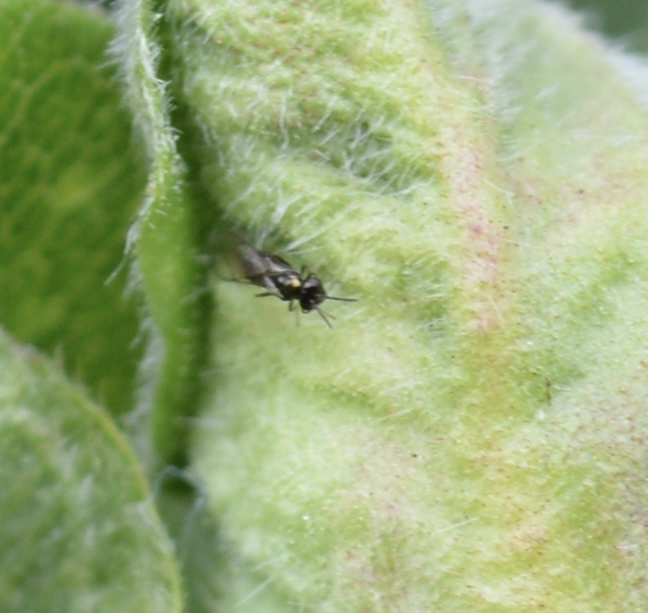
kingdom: Animalia
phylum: Arthropoda
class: Insecta
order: Diptera
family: Cecidomyiidae
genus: Dasineura
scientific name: Dasineura
